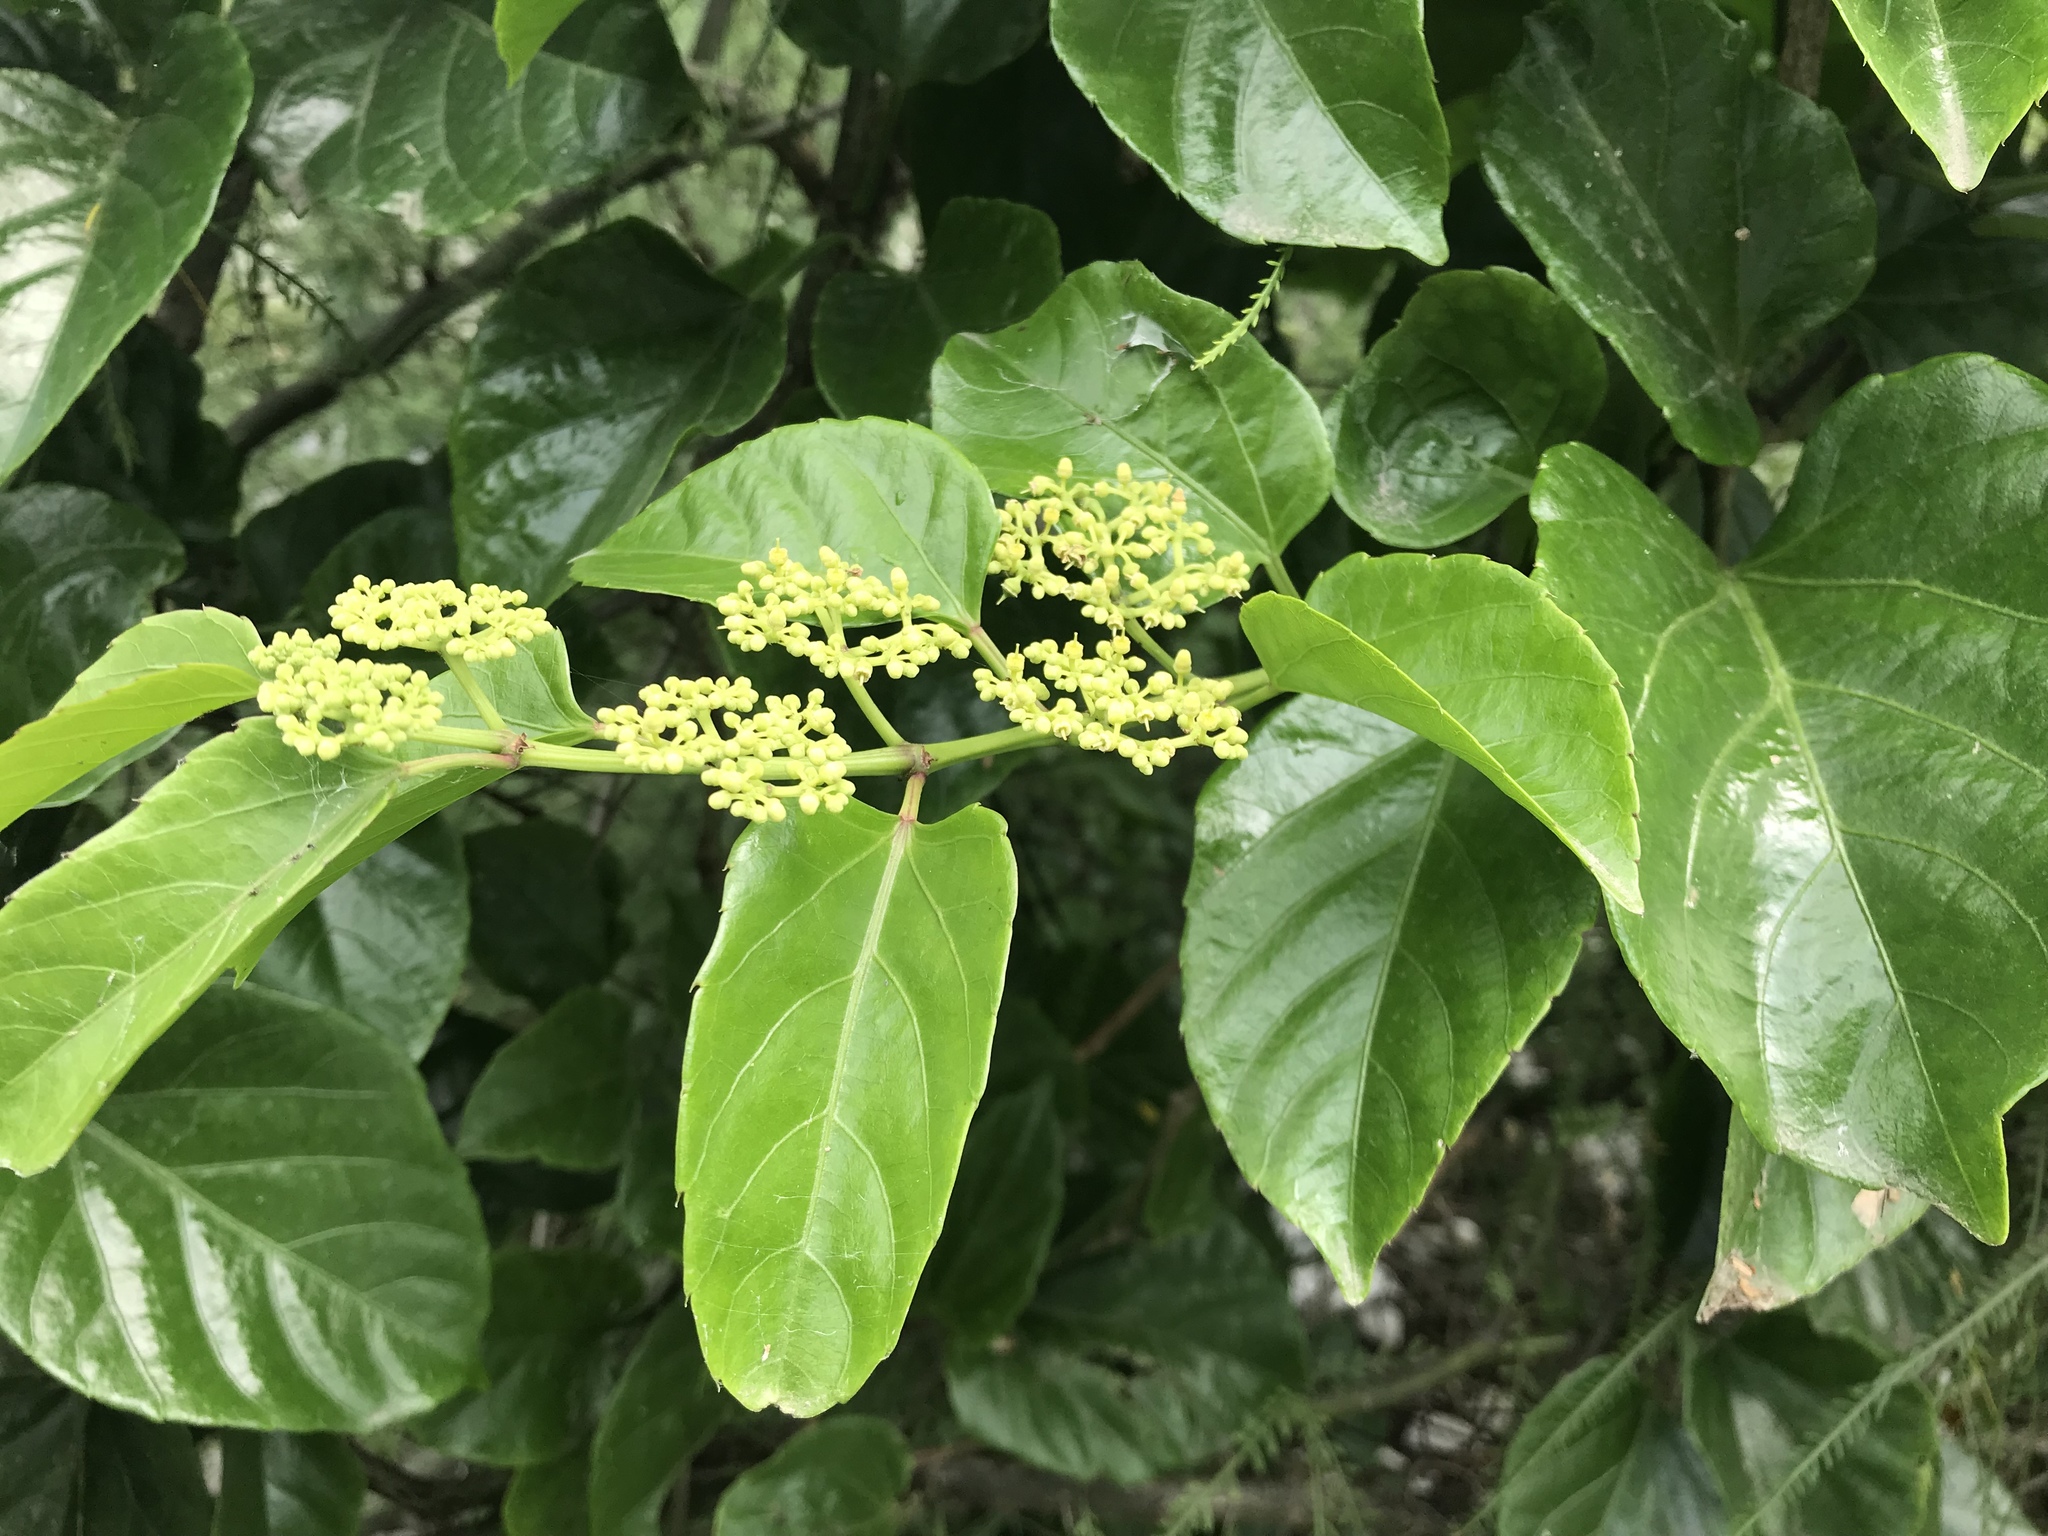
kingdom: Plantae
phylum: Tracheophyta
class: Magnoliopsida
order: Vitales
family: Vitaceae
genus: Cissus
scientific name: Cissus verticillata
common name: Princess vine
